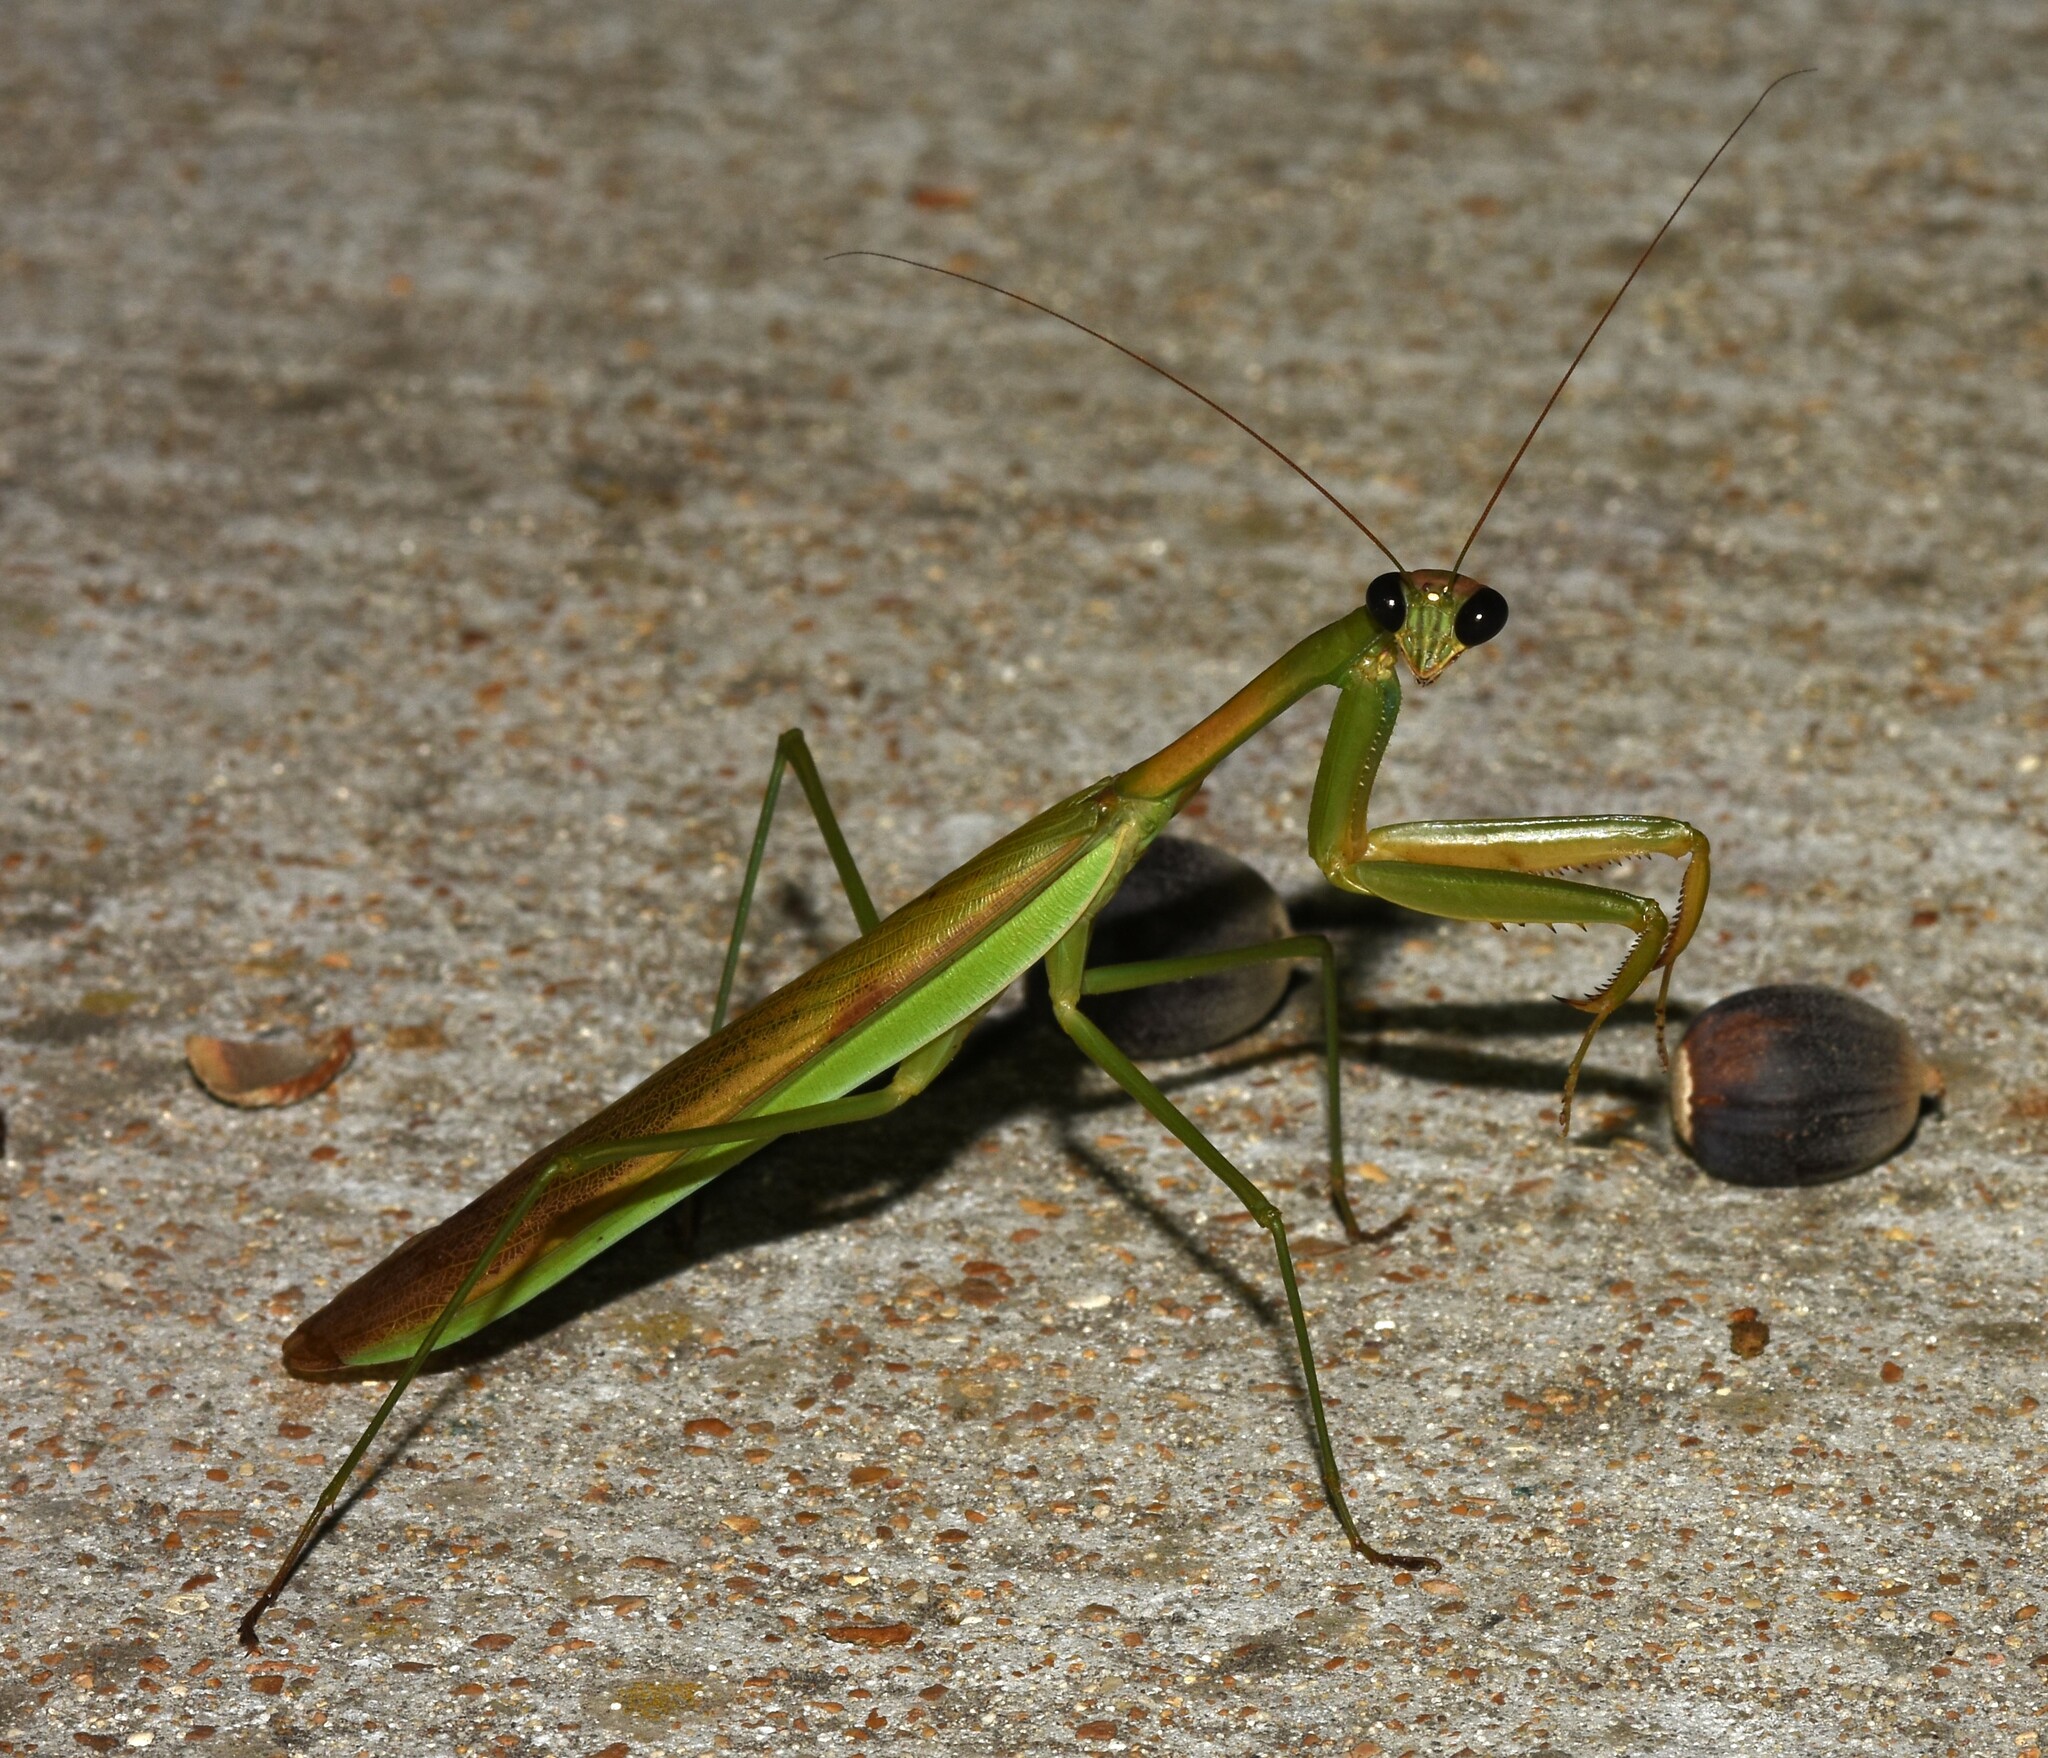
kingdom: Animalia
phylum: Arthropoda
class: Insecta
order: Mantodea
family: Mantidae
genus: Tenodera
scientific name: Tenodera sinensis
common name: Chinese mantis
